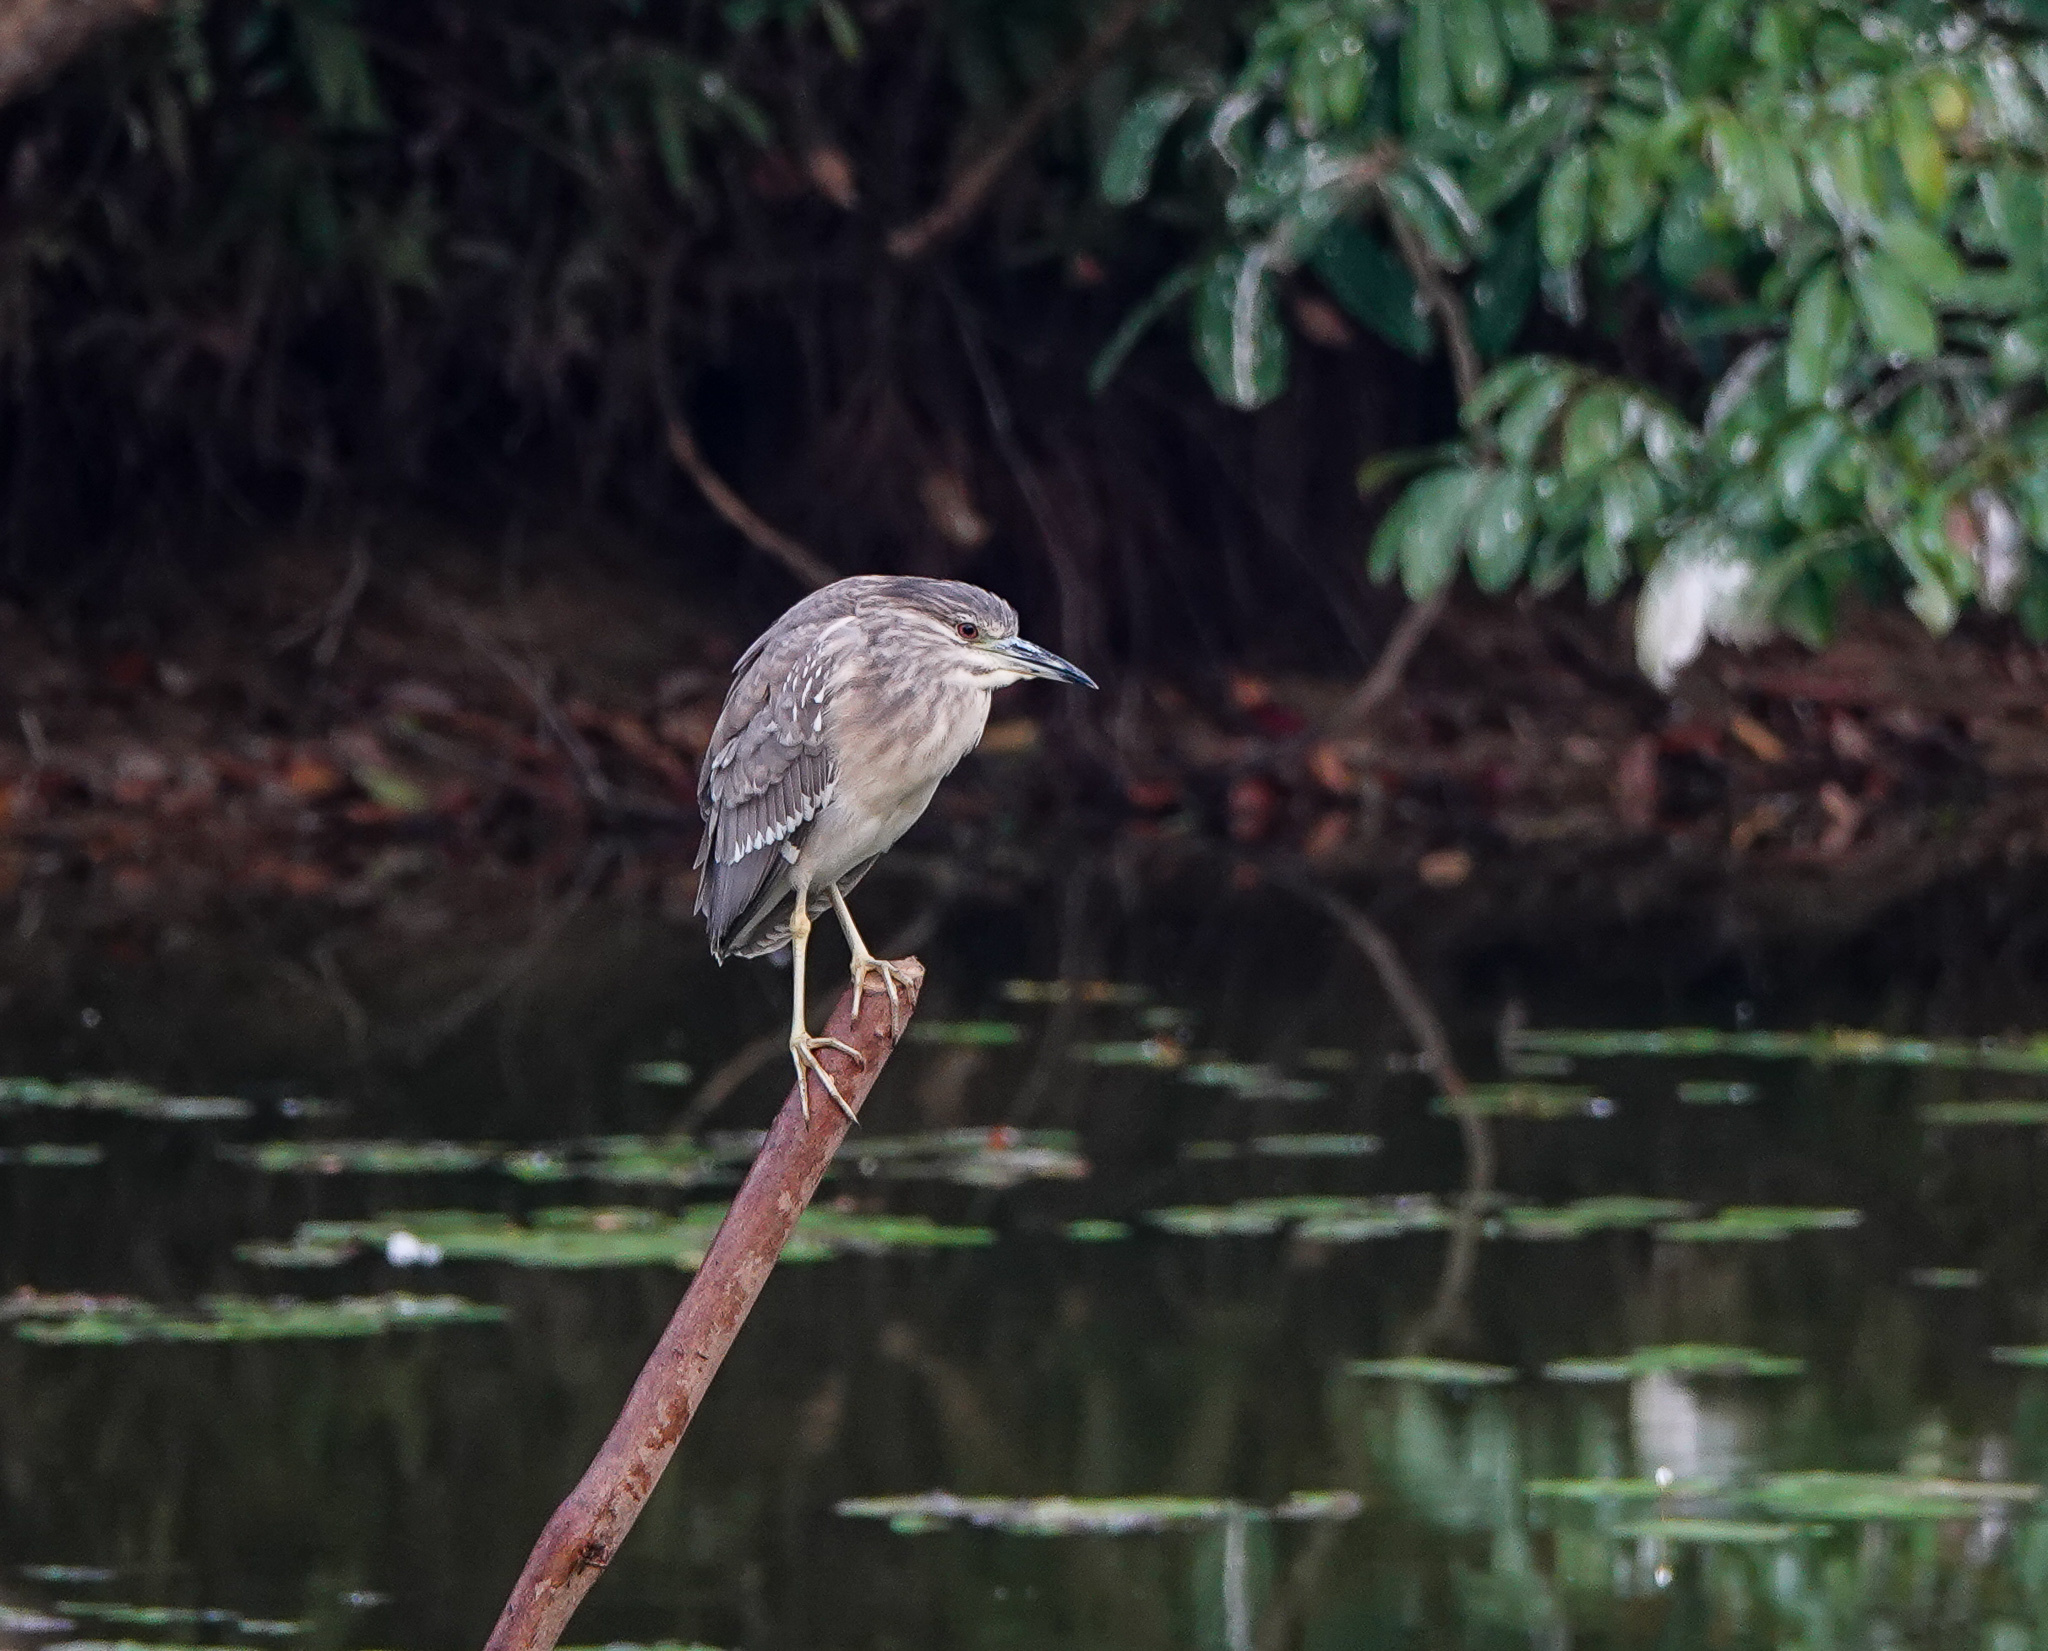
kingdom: Animalia
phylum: Chordata
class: Aves
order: Pelecaniformes
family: Ardeidae
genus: Nycticorax
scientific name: Nycticorax nycticorax
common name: Black-crowned night heron
